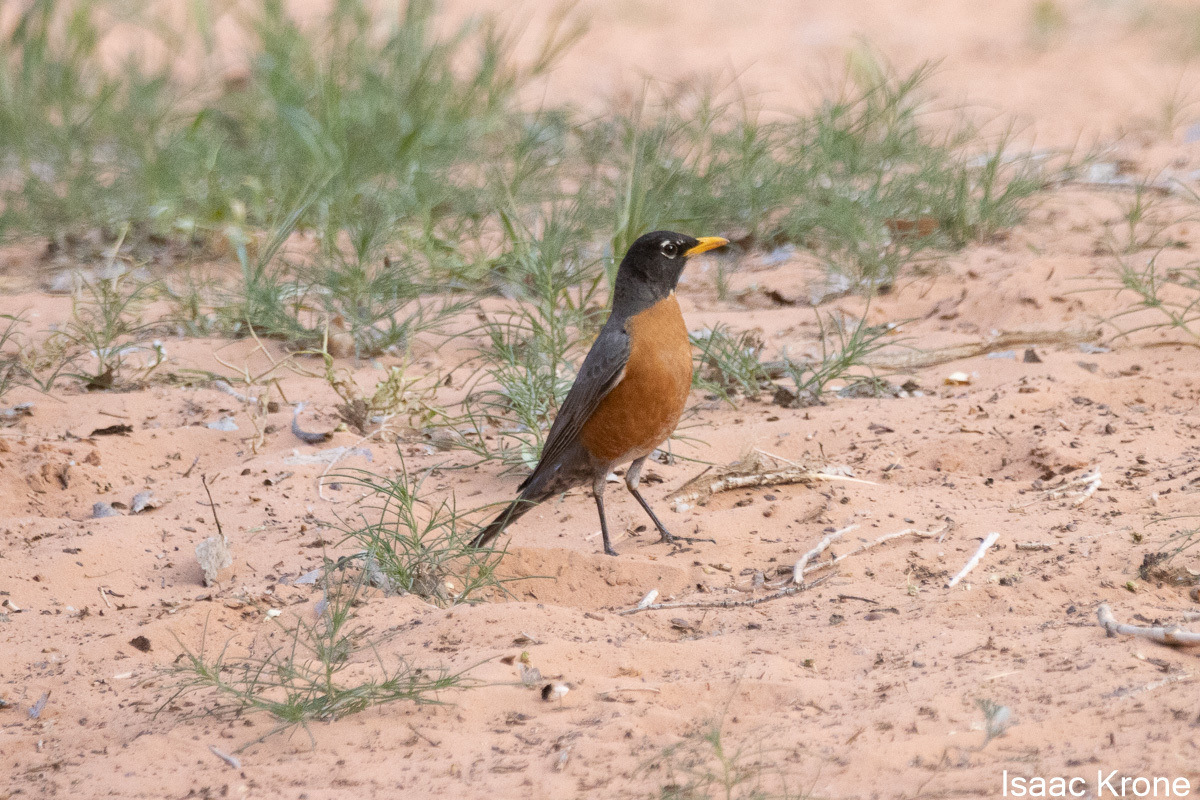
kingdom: Animalia
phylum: Chordata
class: Aves
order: Passeriformes
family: Turdidae
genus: Turdus
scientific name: Turdus migratorius
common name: American robin
